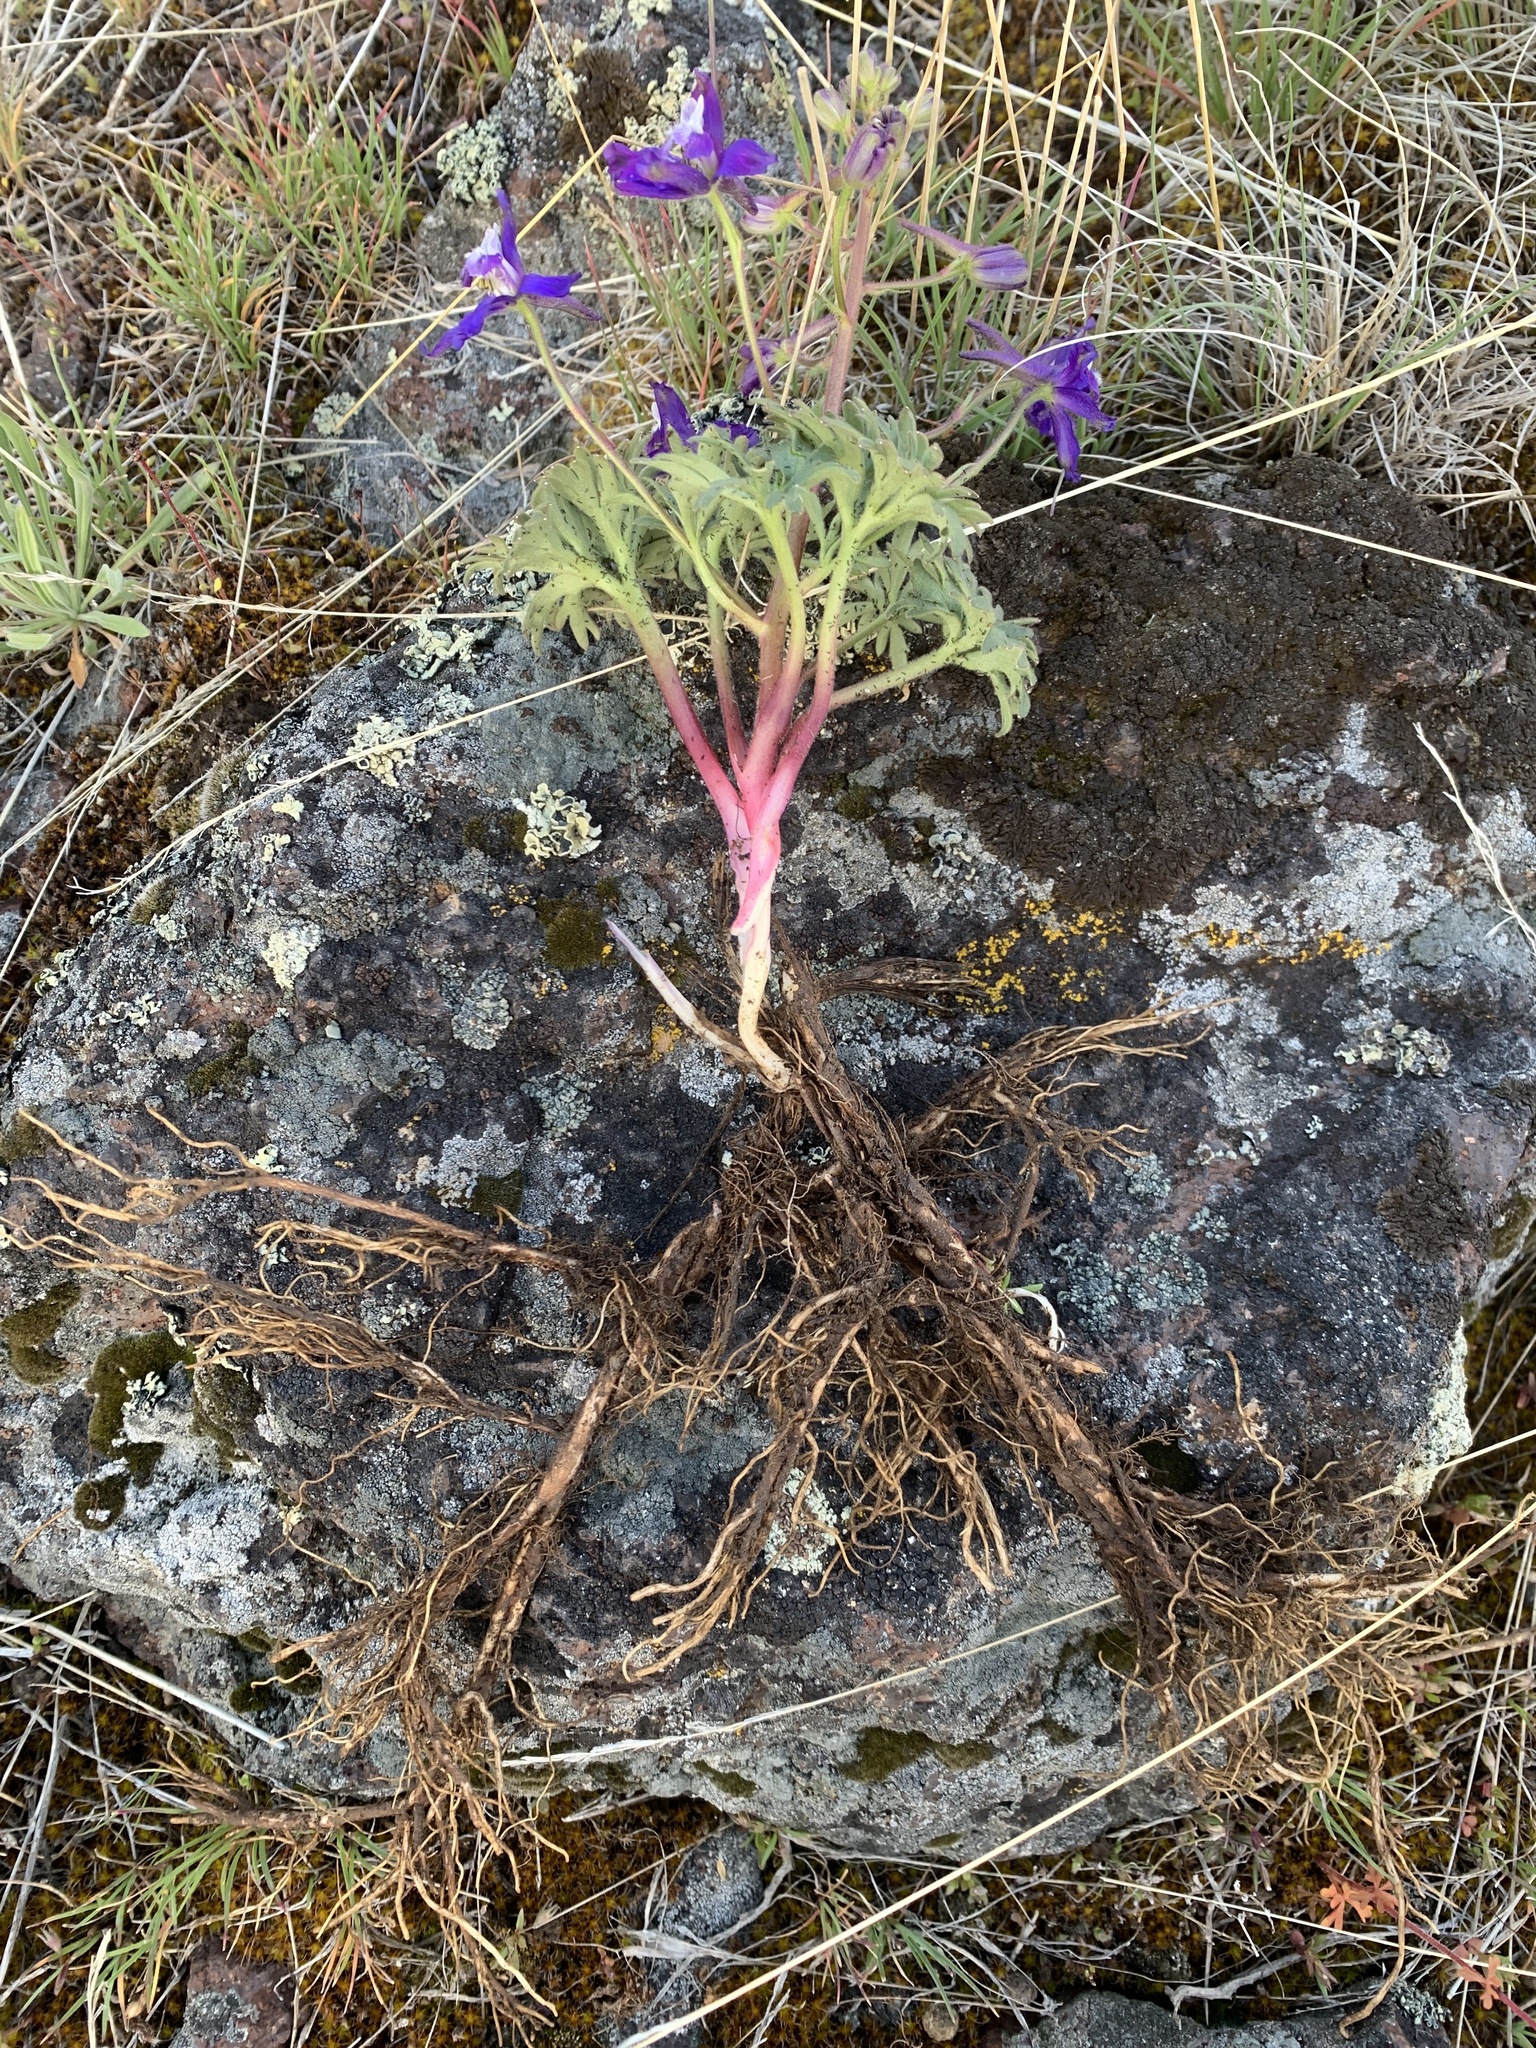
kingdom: Plantae
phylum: Tracheophyta
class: Magnoliopsida
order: Ranunculales
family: Ranunculaceae
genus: Delphinium
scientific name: Delphinium glareosum
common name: Olympic mountain larkspur
